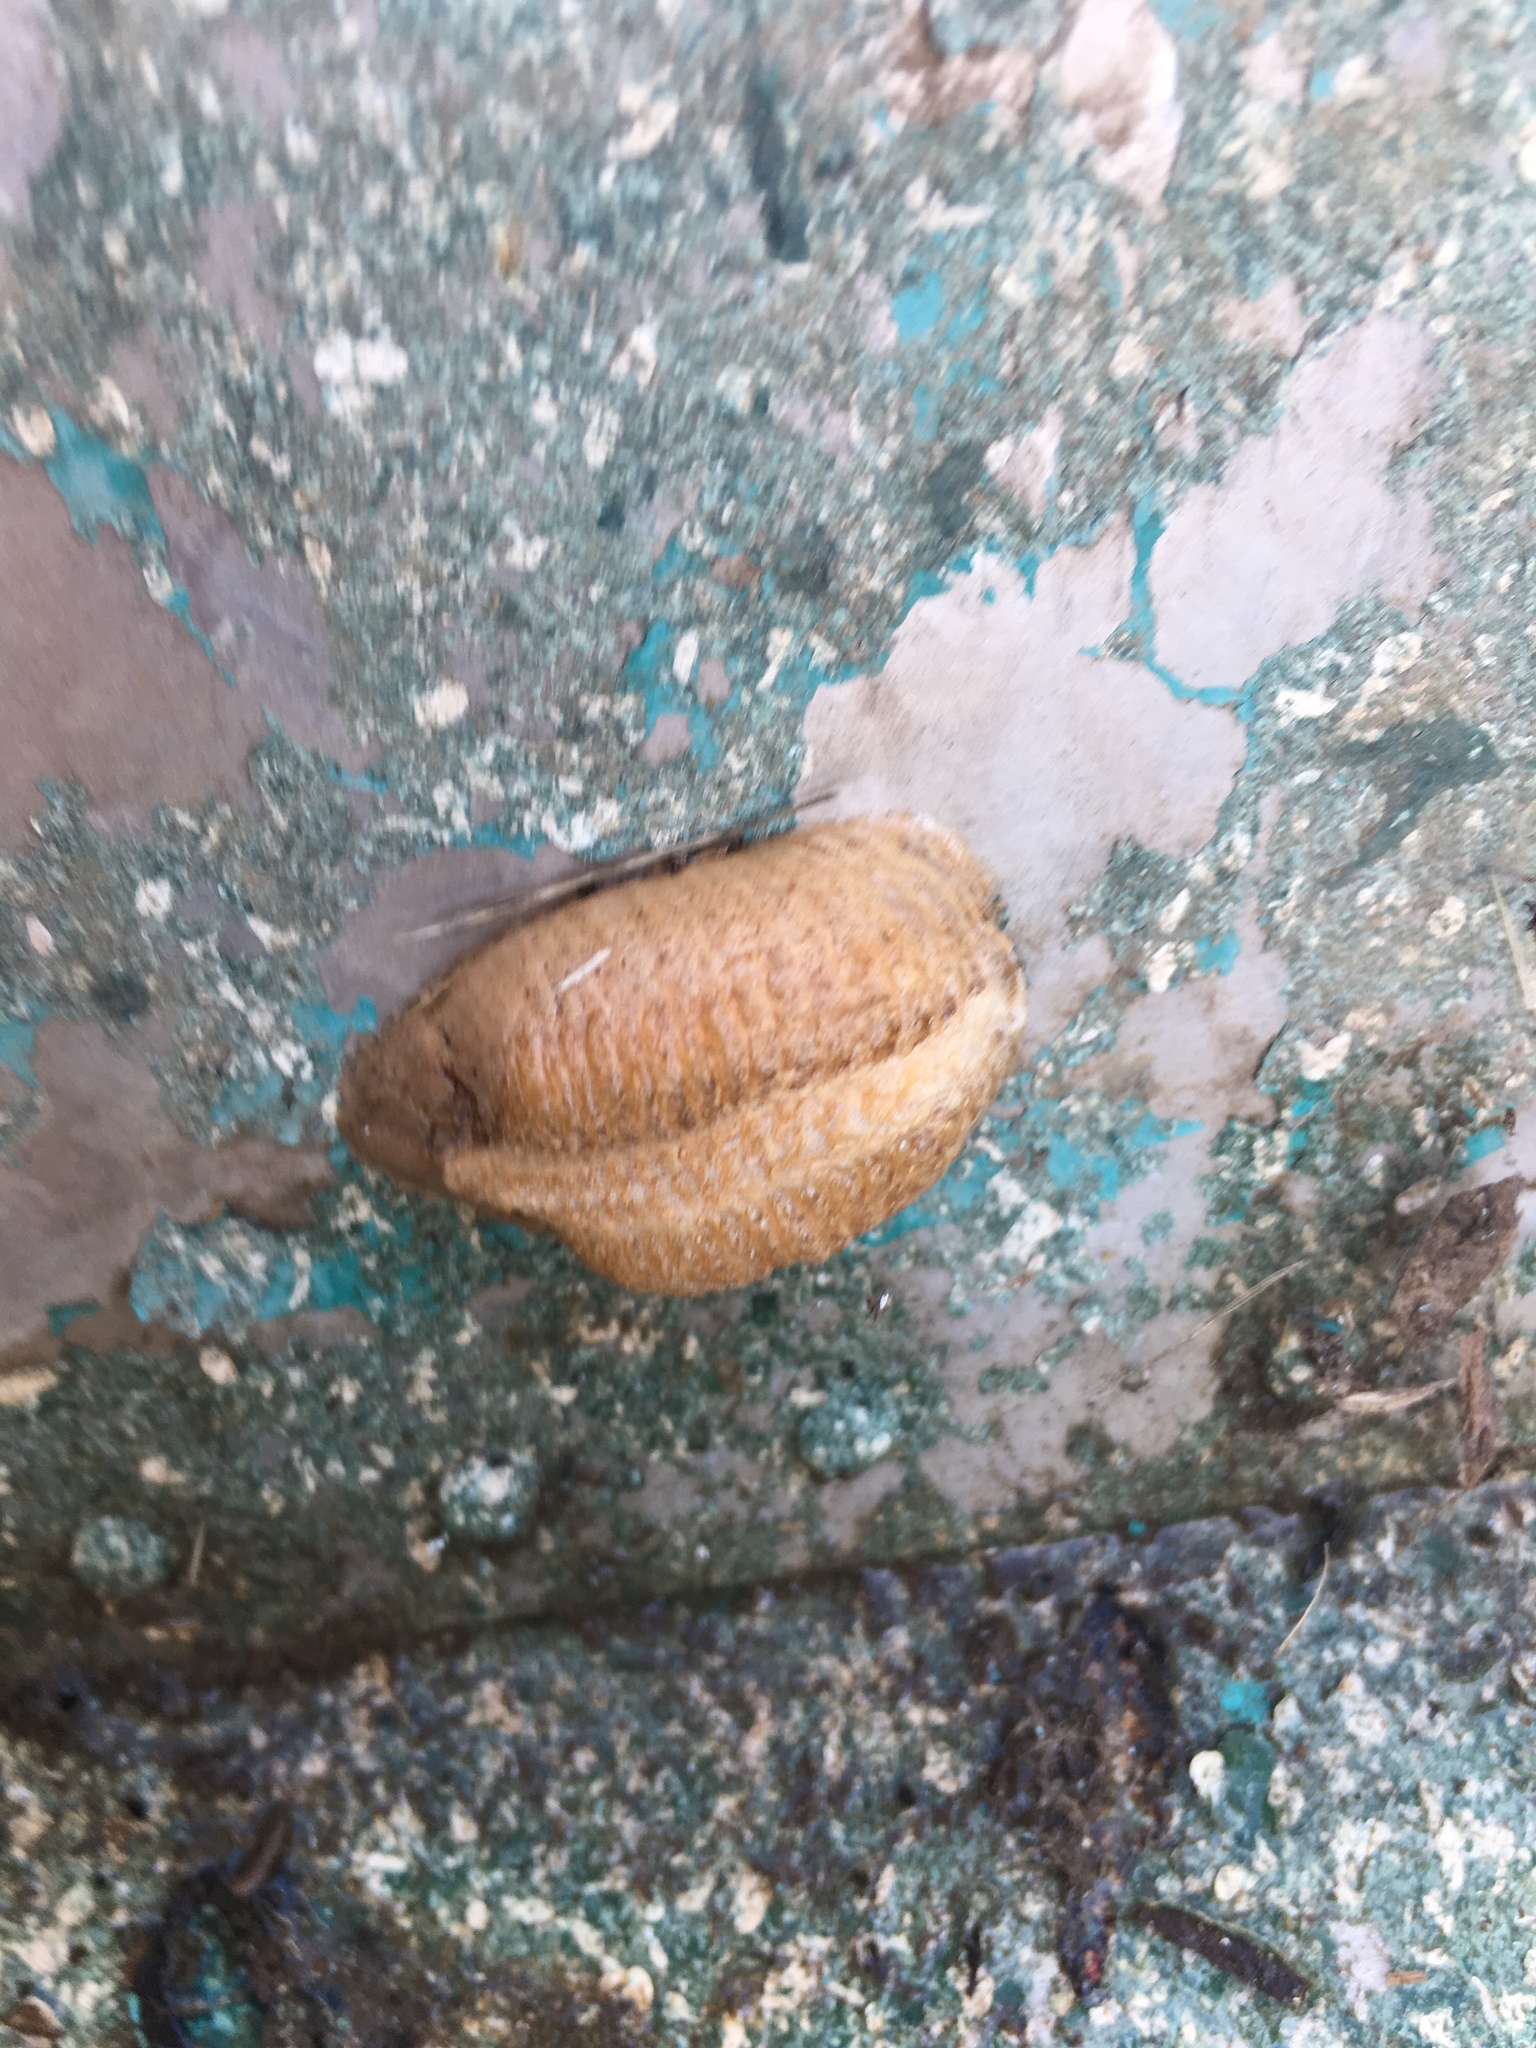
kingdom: Animalia
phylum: Arthropoda
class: Insecta
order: Mantodea
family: Mantidae
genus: Mantis
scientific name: Mantis religiosa
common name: Praying mantis
